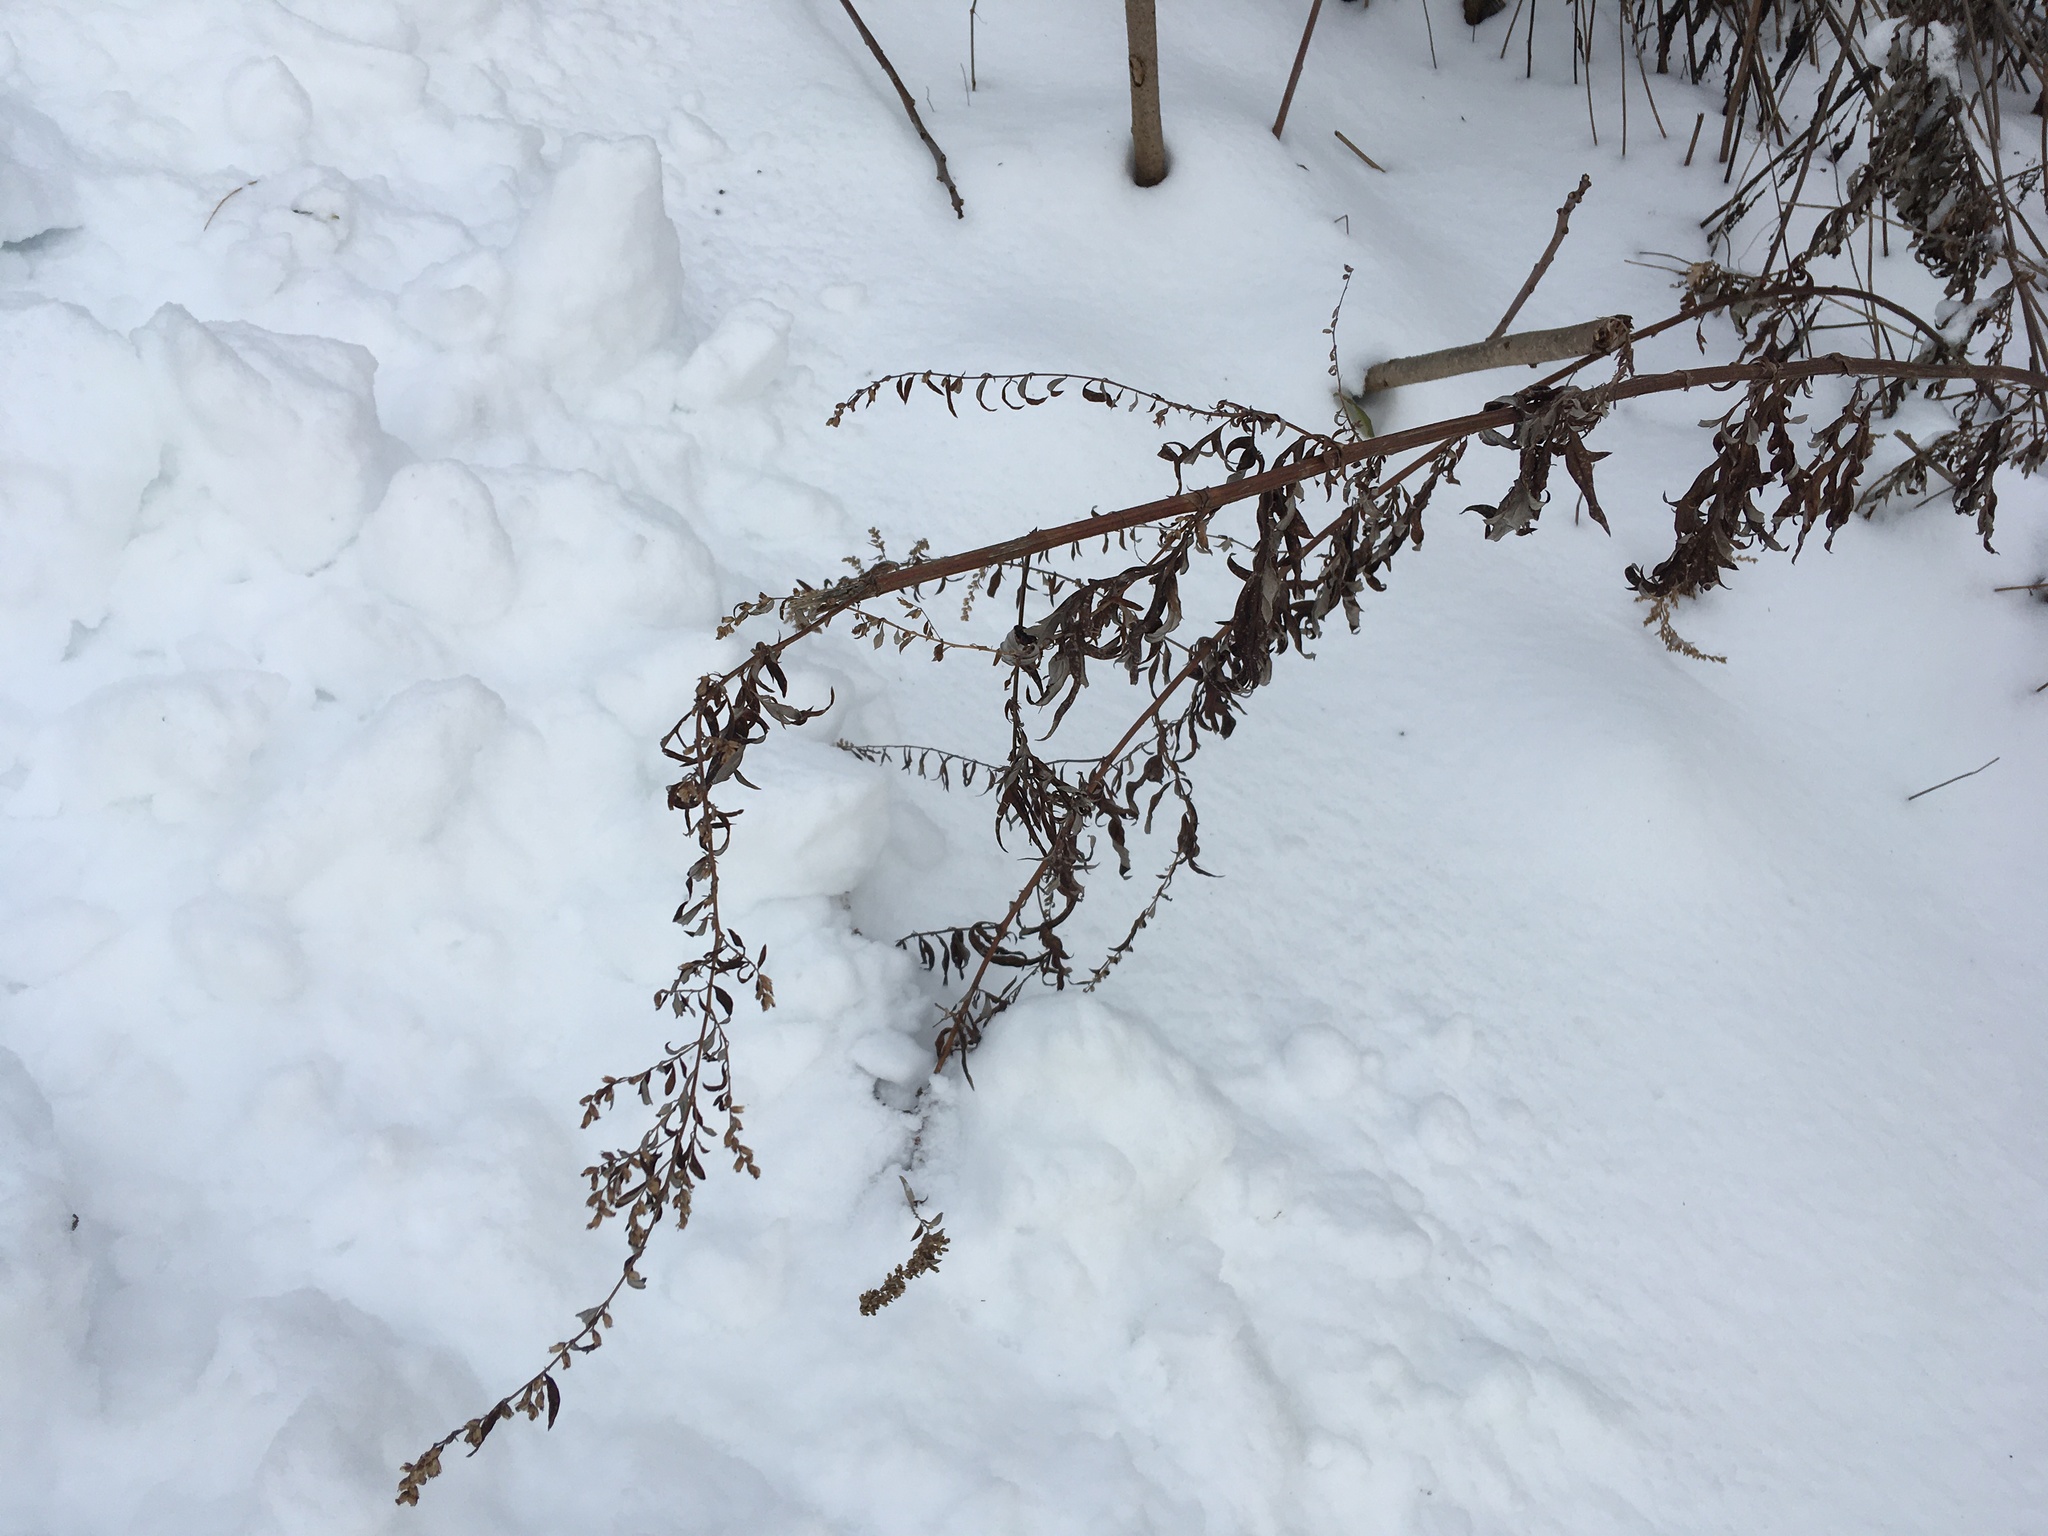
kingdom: Plantae
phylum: Tracheophyta
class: Magnoliopsida
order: Asterales
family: Asteraceae
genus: Artemisia
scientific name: Artemisia vulgaris
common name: Mugwort
